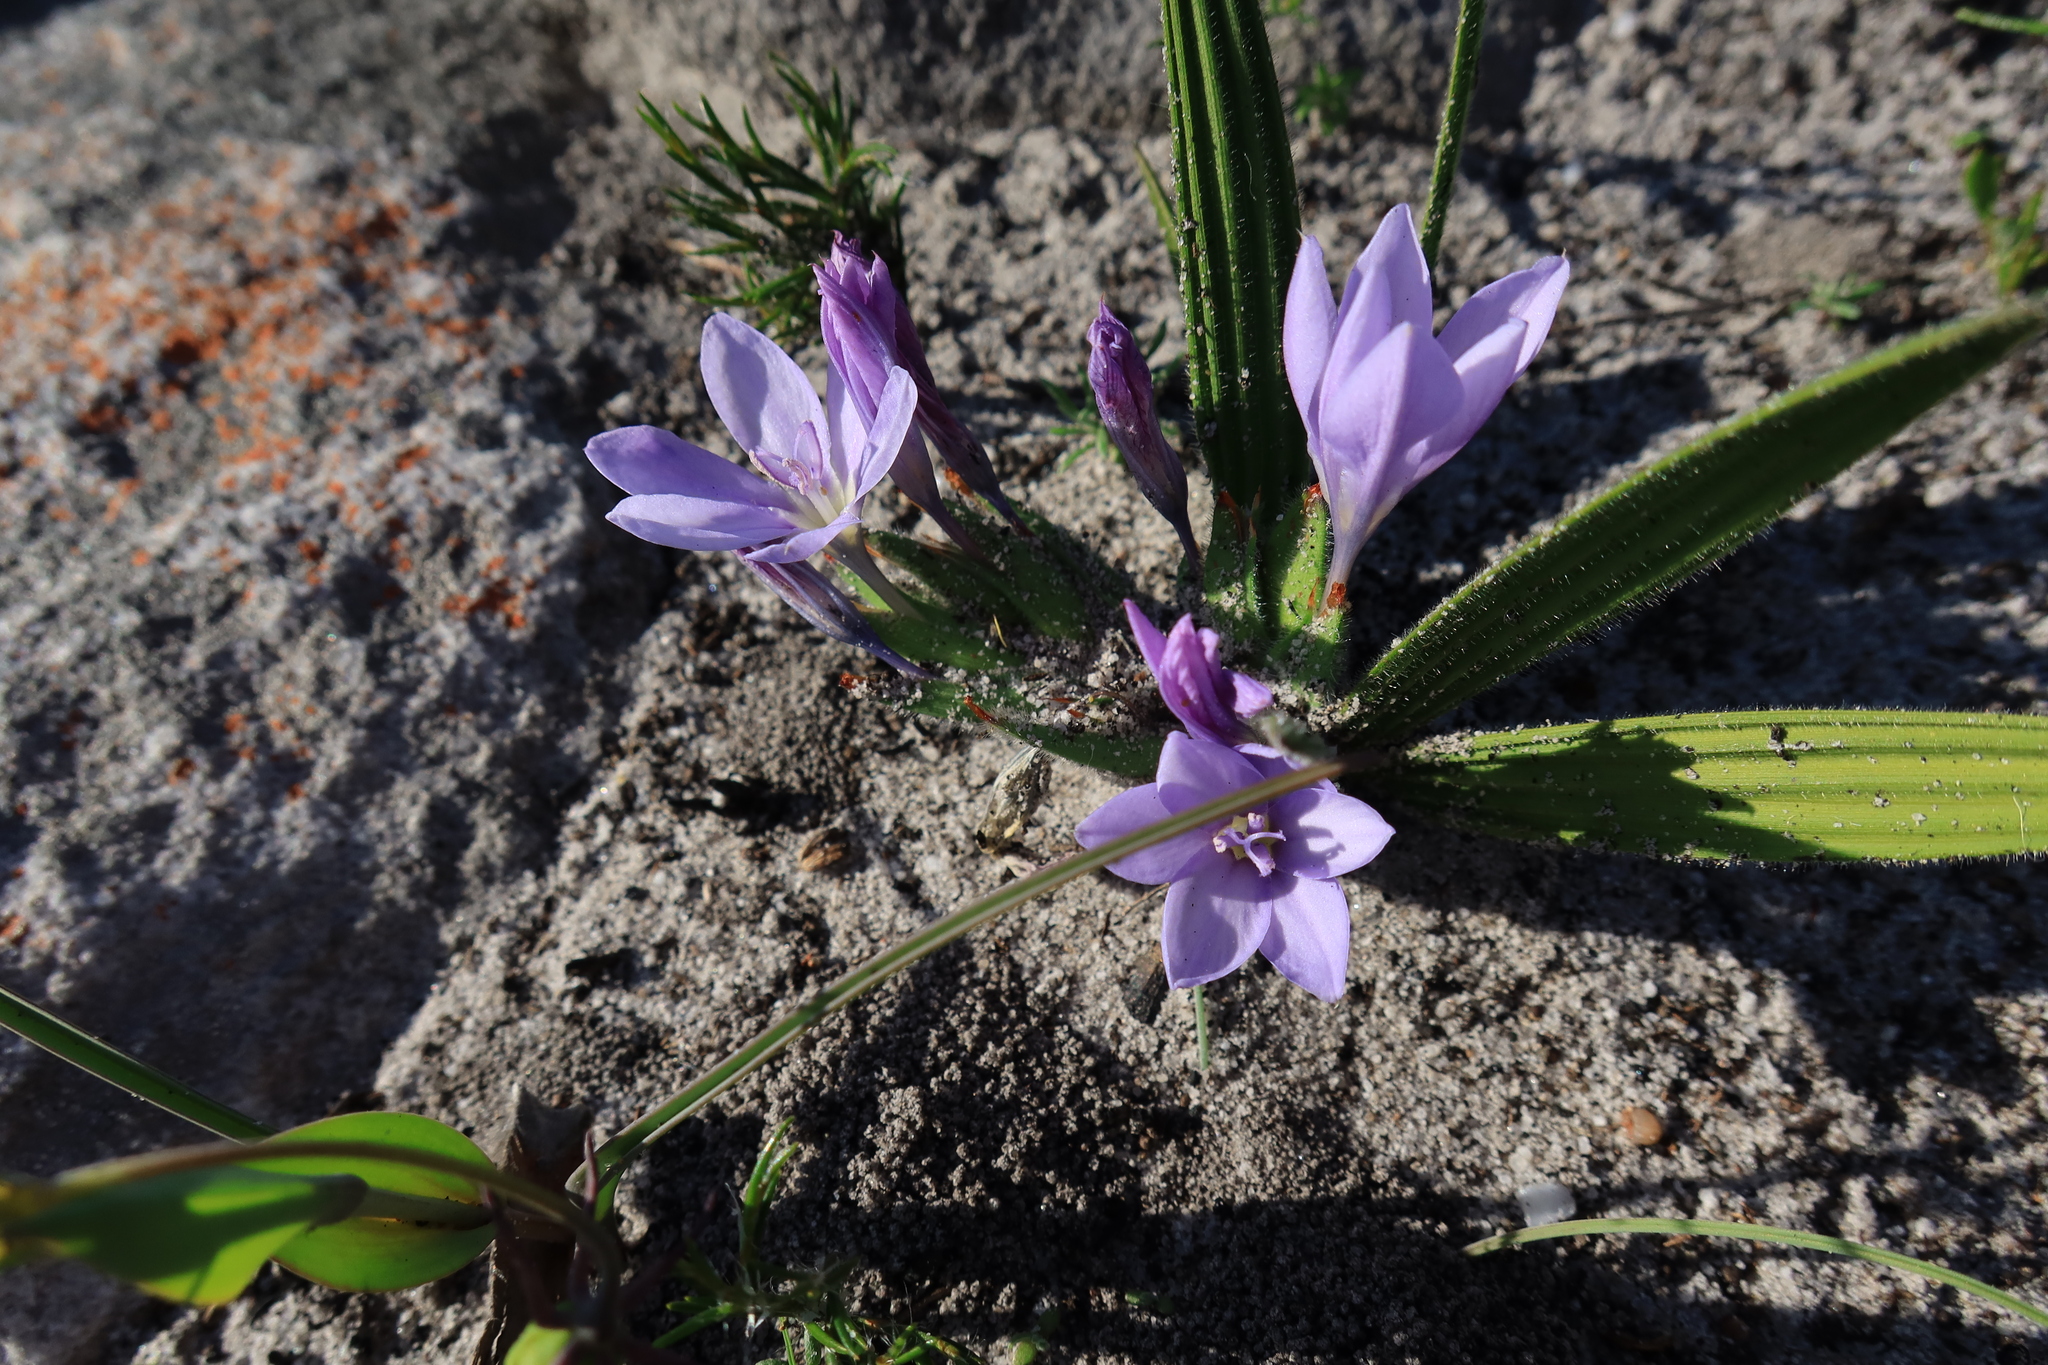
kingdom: Plantae
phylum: Tracheophyta
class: Liliopsida
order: Asparagales
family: Iridaceae
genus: Babiana
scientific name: Babiana villosula
